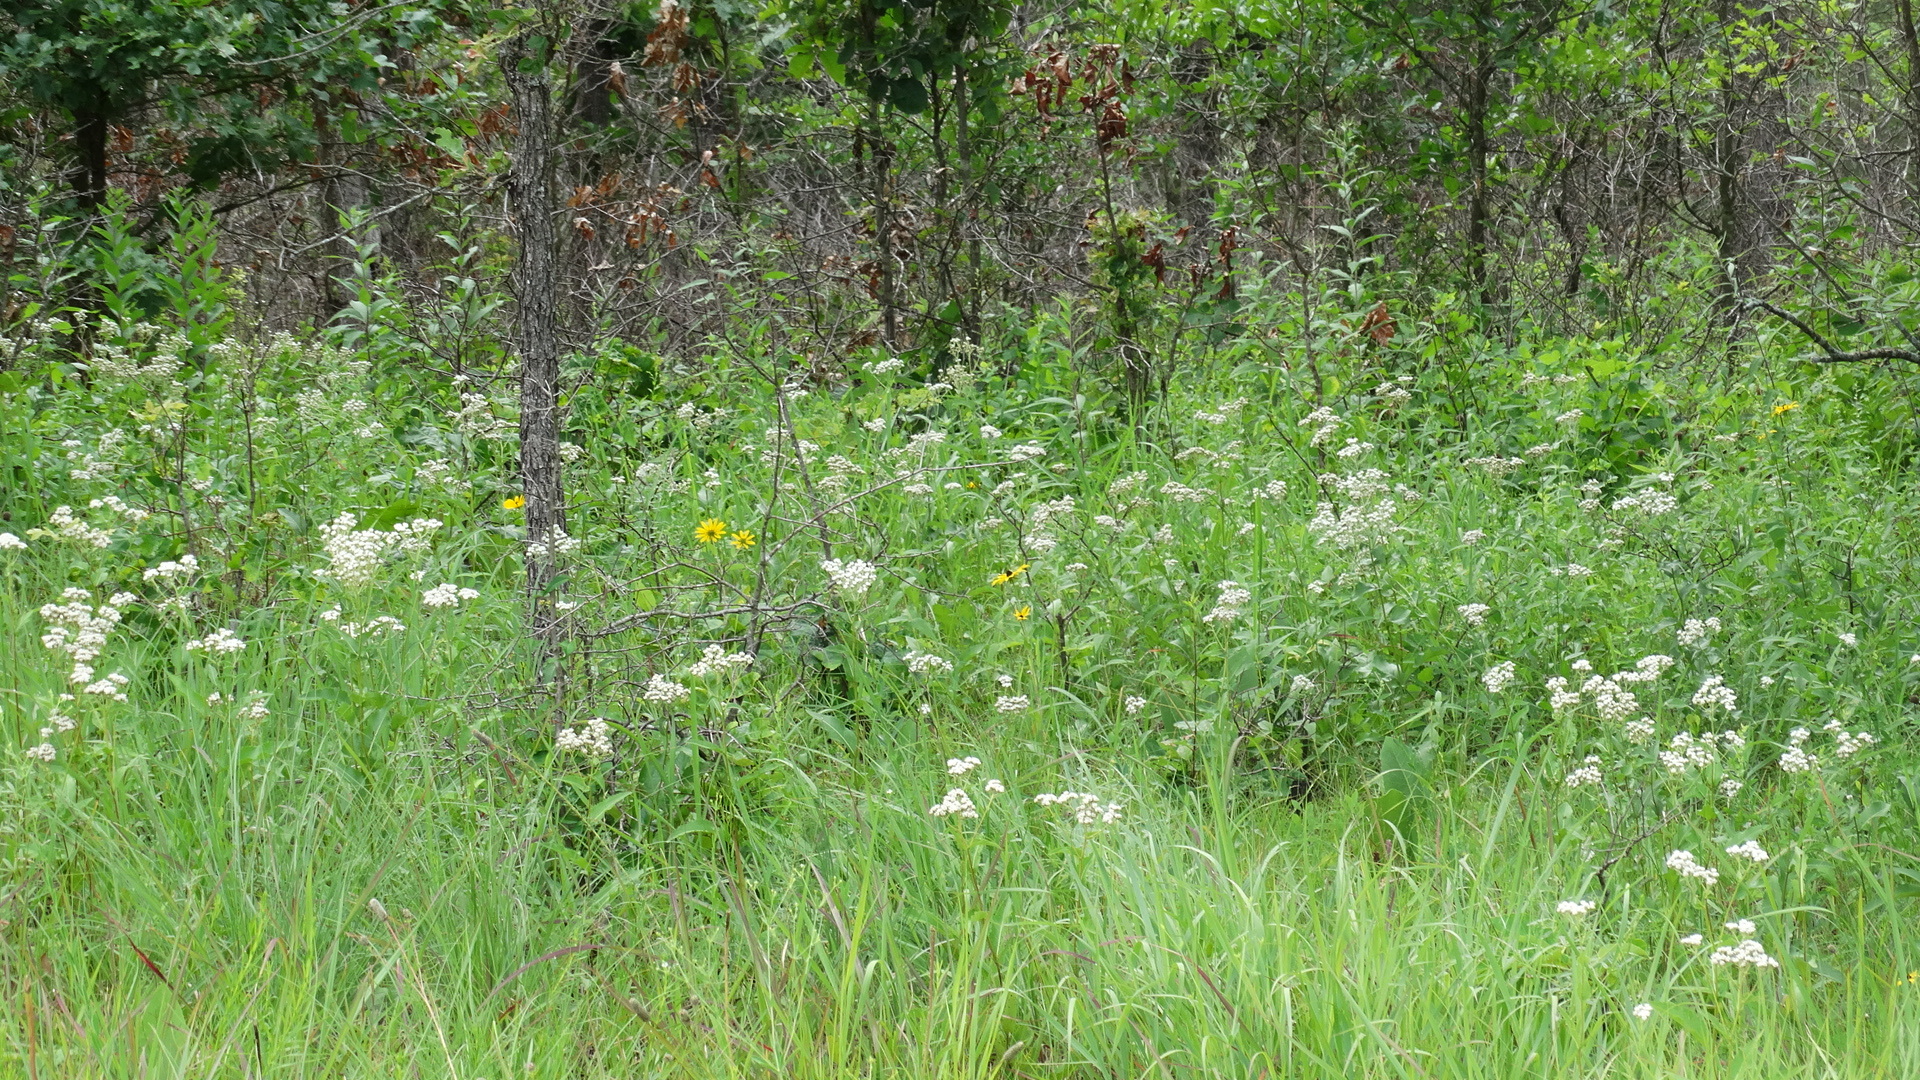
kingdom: Plantae
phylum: Tracheophyta
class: Magnoliopsida
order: Asterales
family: Asteraceae
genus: Parthenium
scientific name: Parthenium integrifolium
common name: American feverfew
